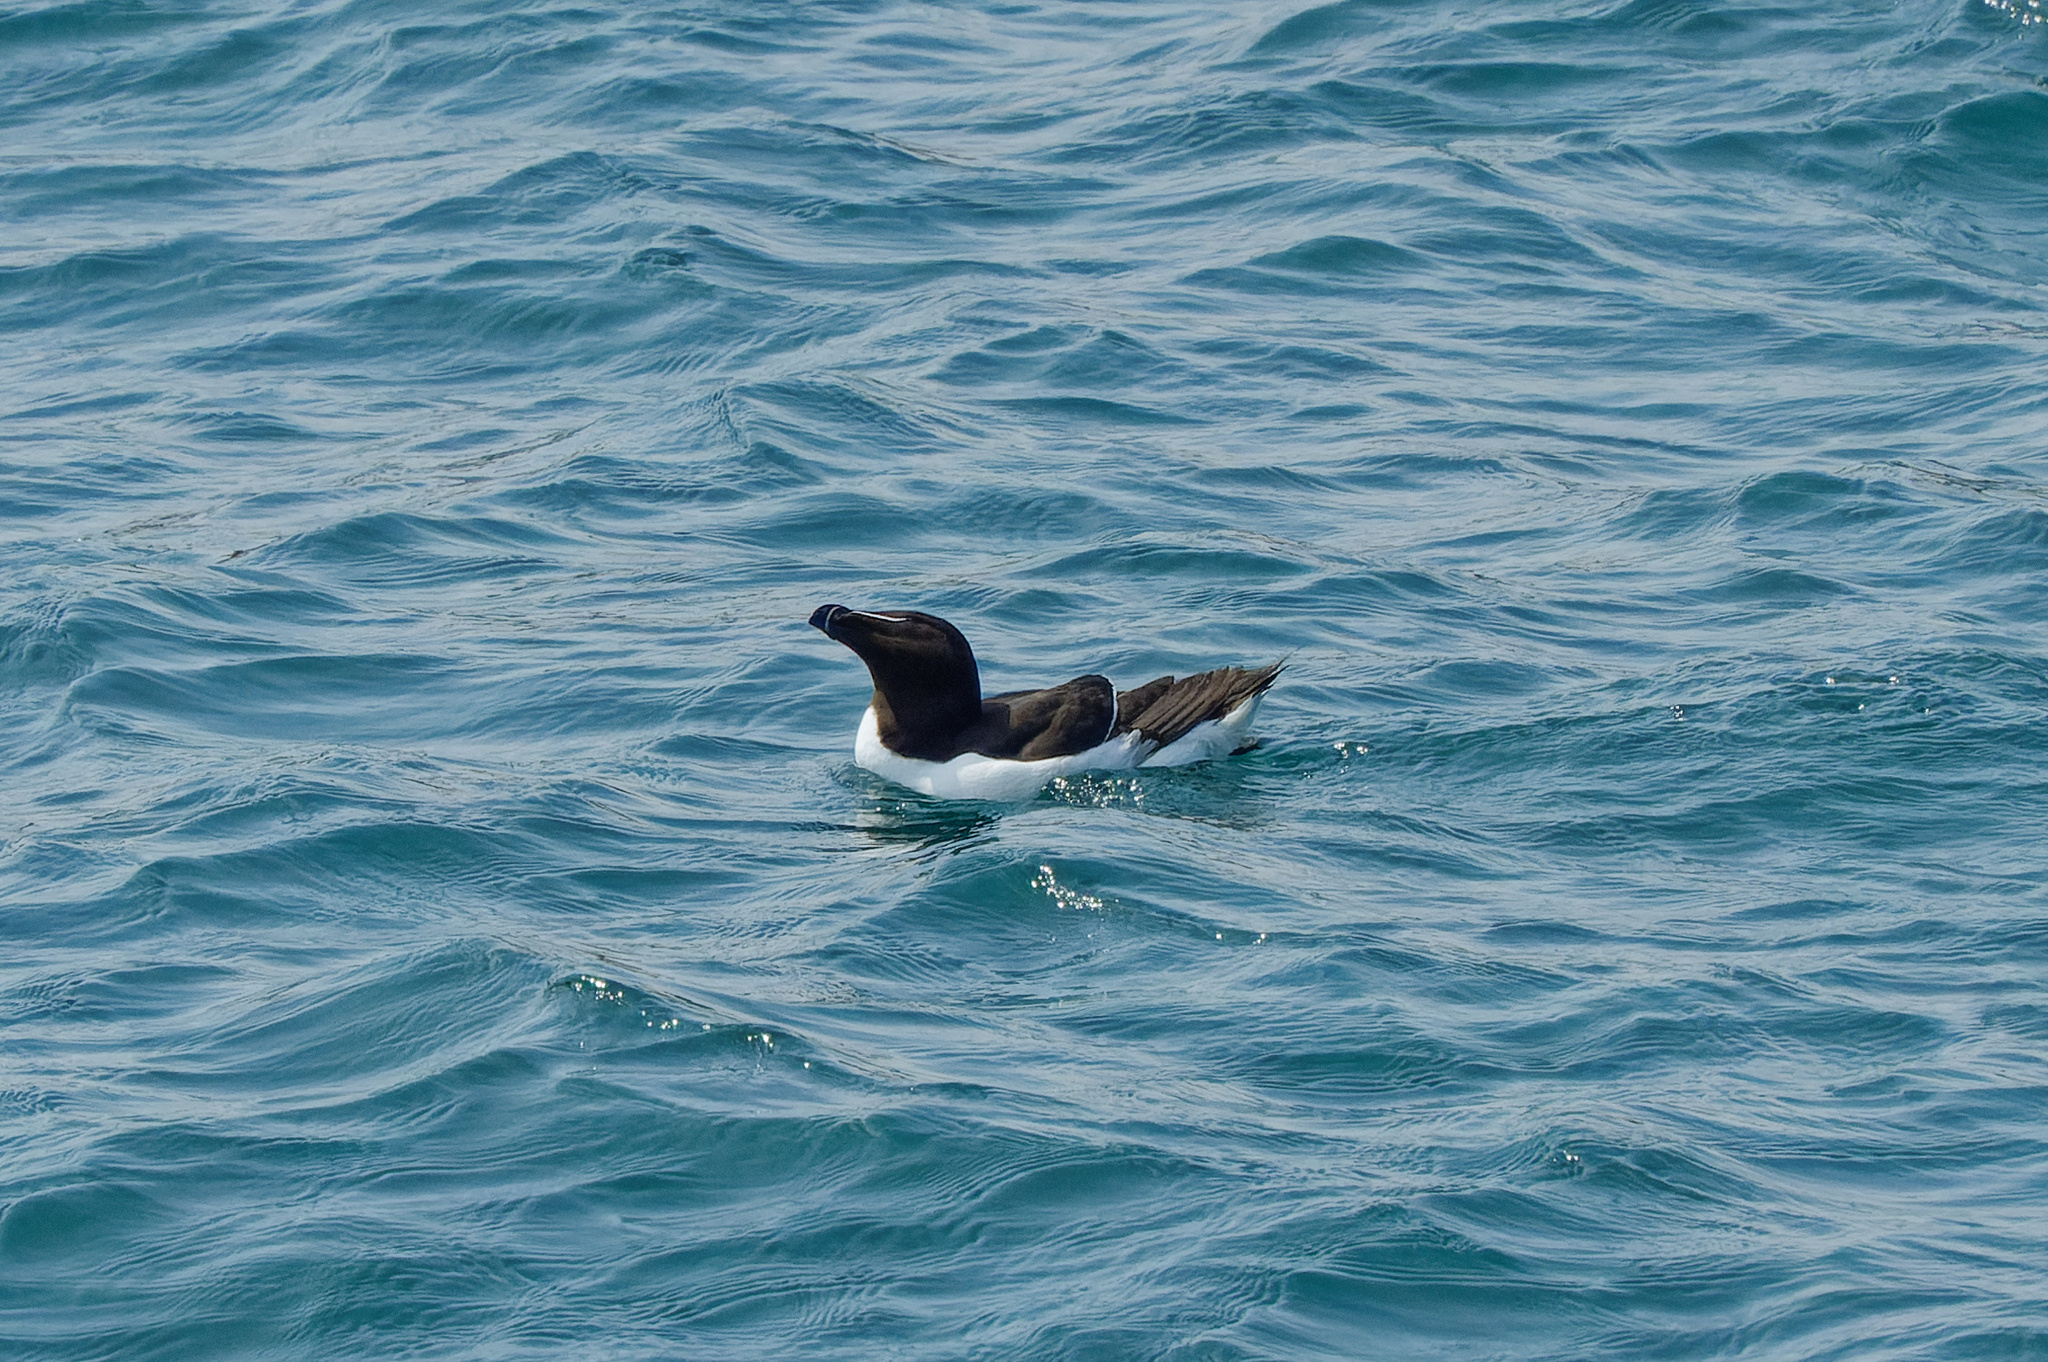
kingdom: Animalia
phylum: Chordata
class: Aves
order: Charadriiformes
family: Alcidae
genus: Alca
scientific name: Alca torda
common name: Razorbill
